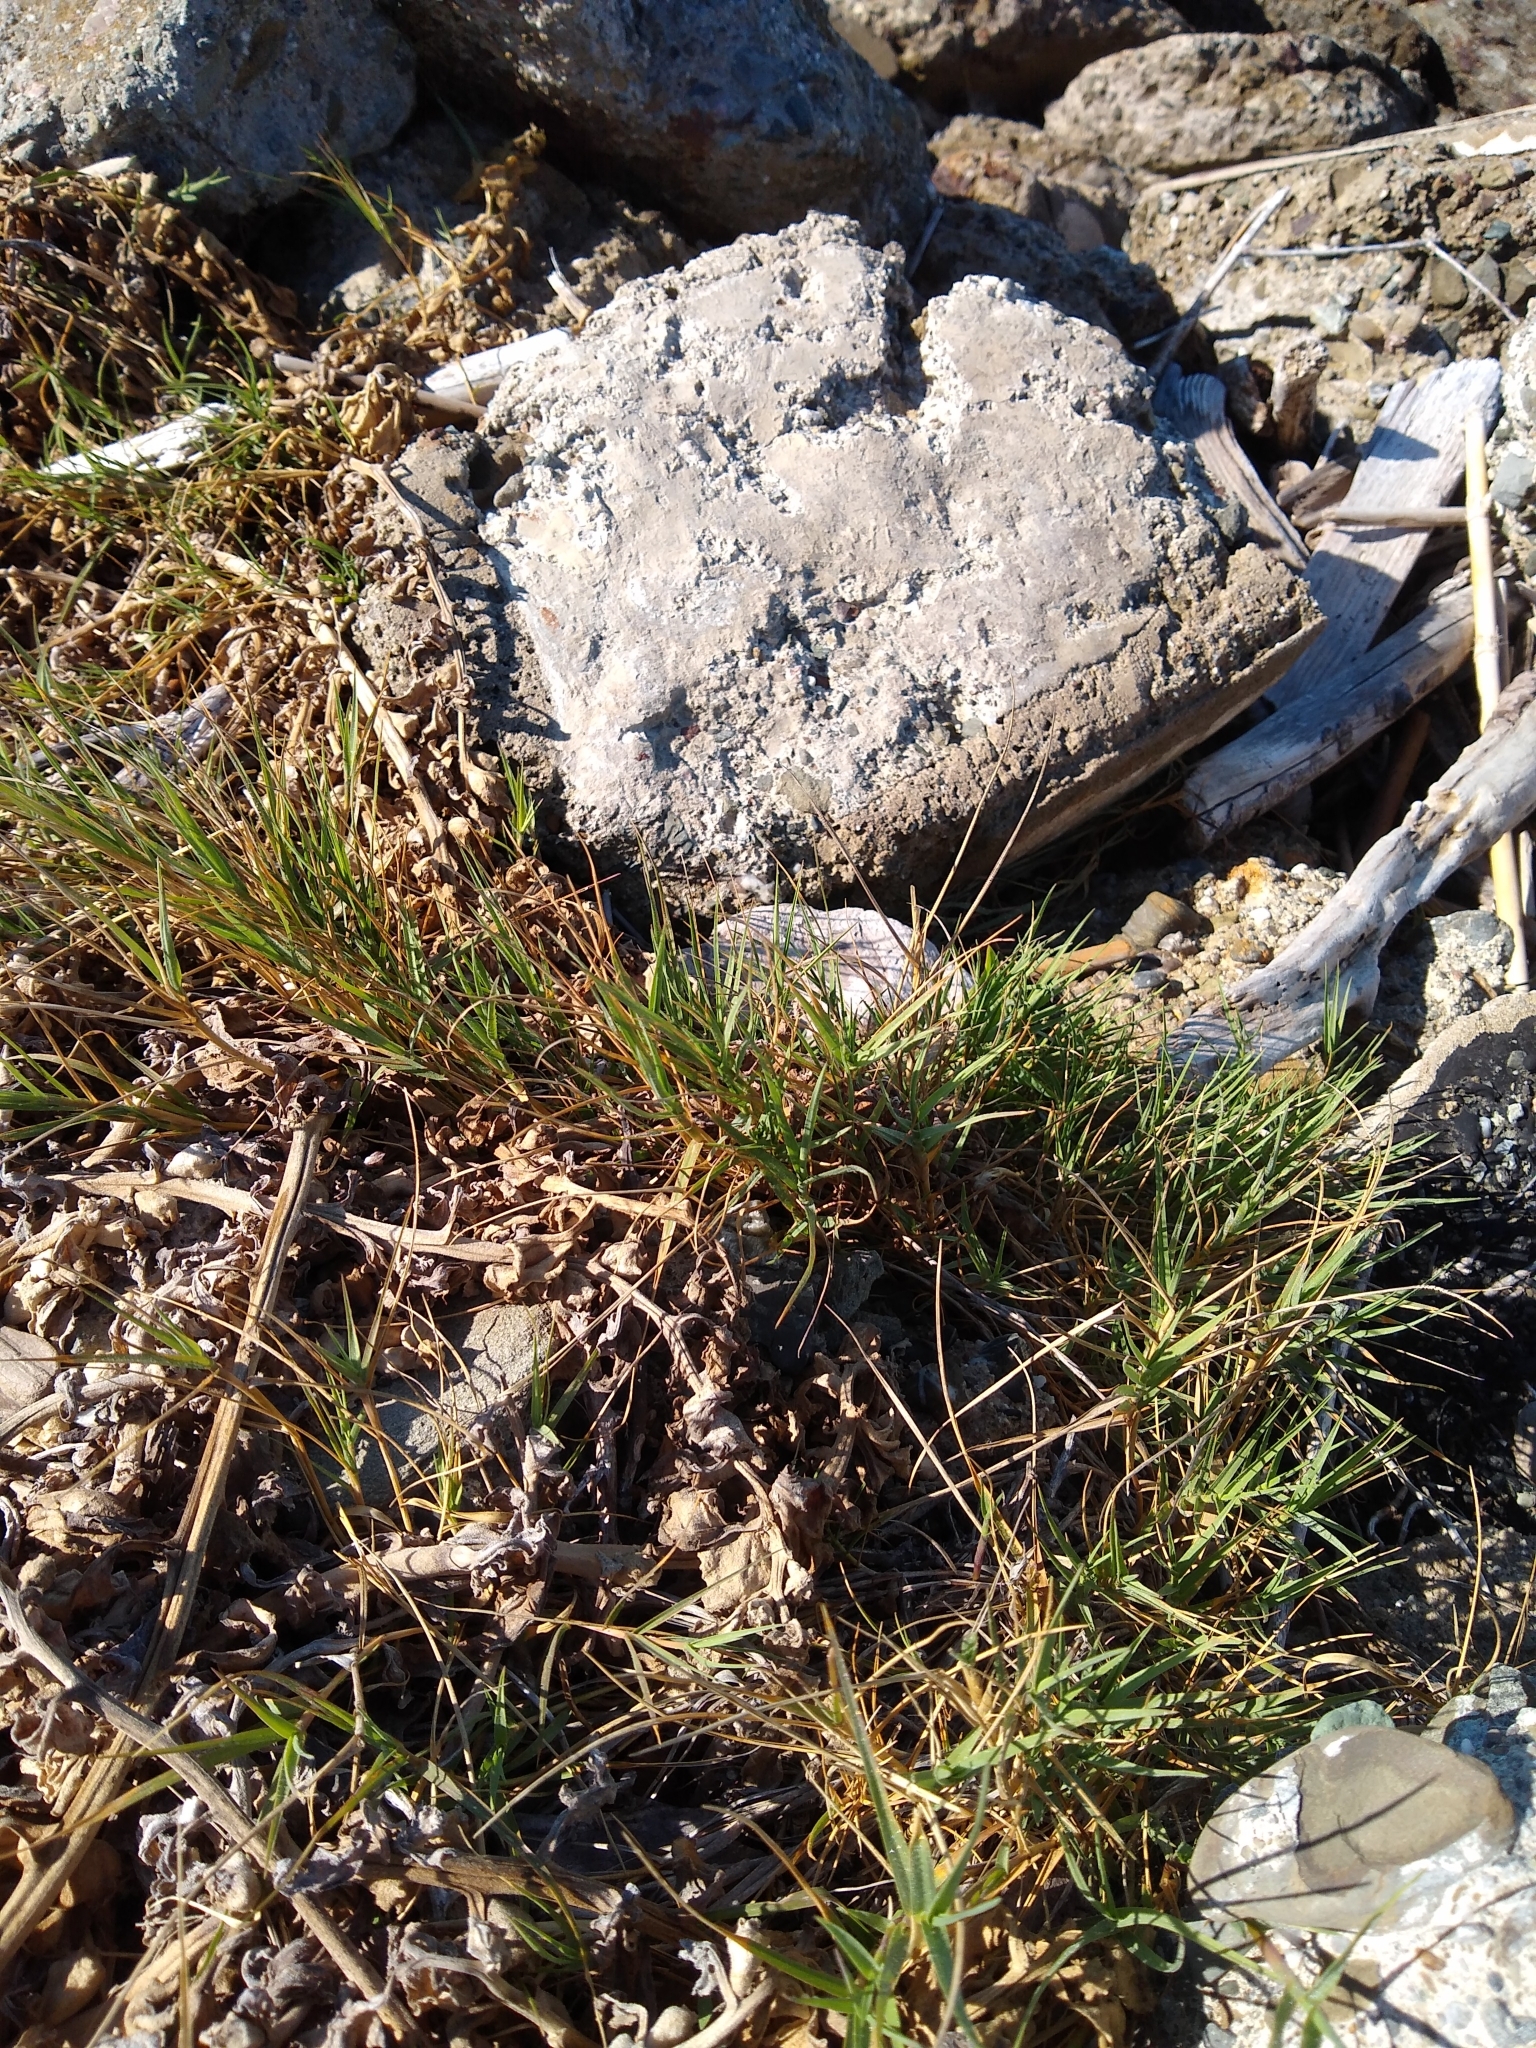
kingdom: Plantae
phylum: Tracheophyta
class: Liliopsida
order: Poales
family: Poaceae
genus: Distichlis
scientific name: Distichlis spicata
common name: Saltgrass
